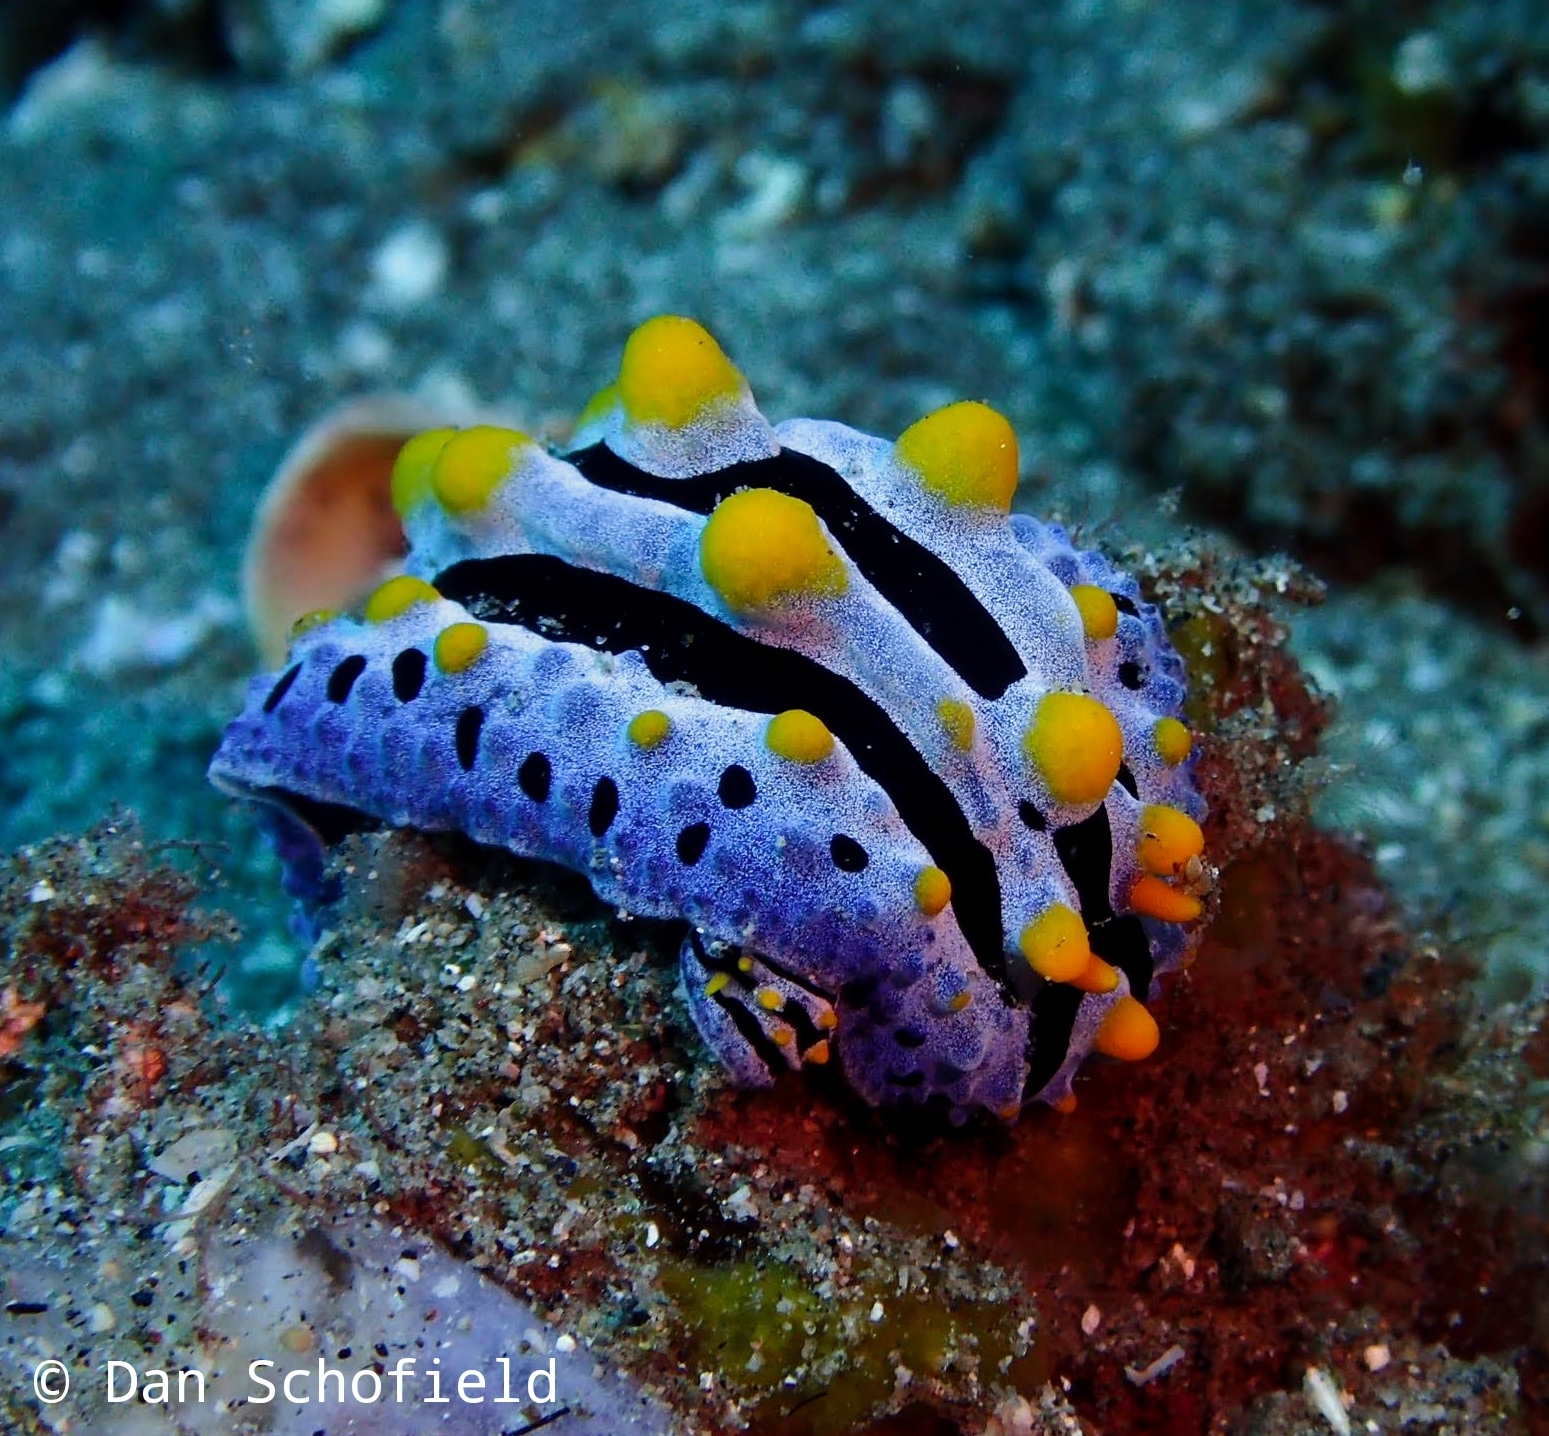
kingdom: Animalia
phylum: Mollusca
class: Gastropoda
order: Nudibranchia
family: Phyllidiidae
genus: Phyllidia
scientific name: Phyllidia coelestis
